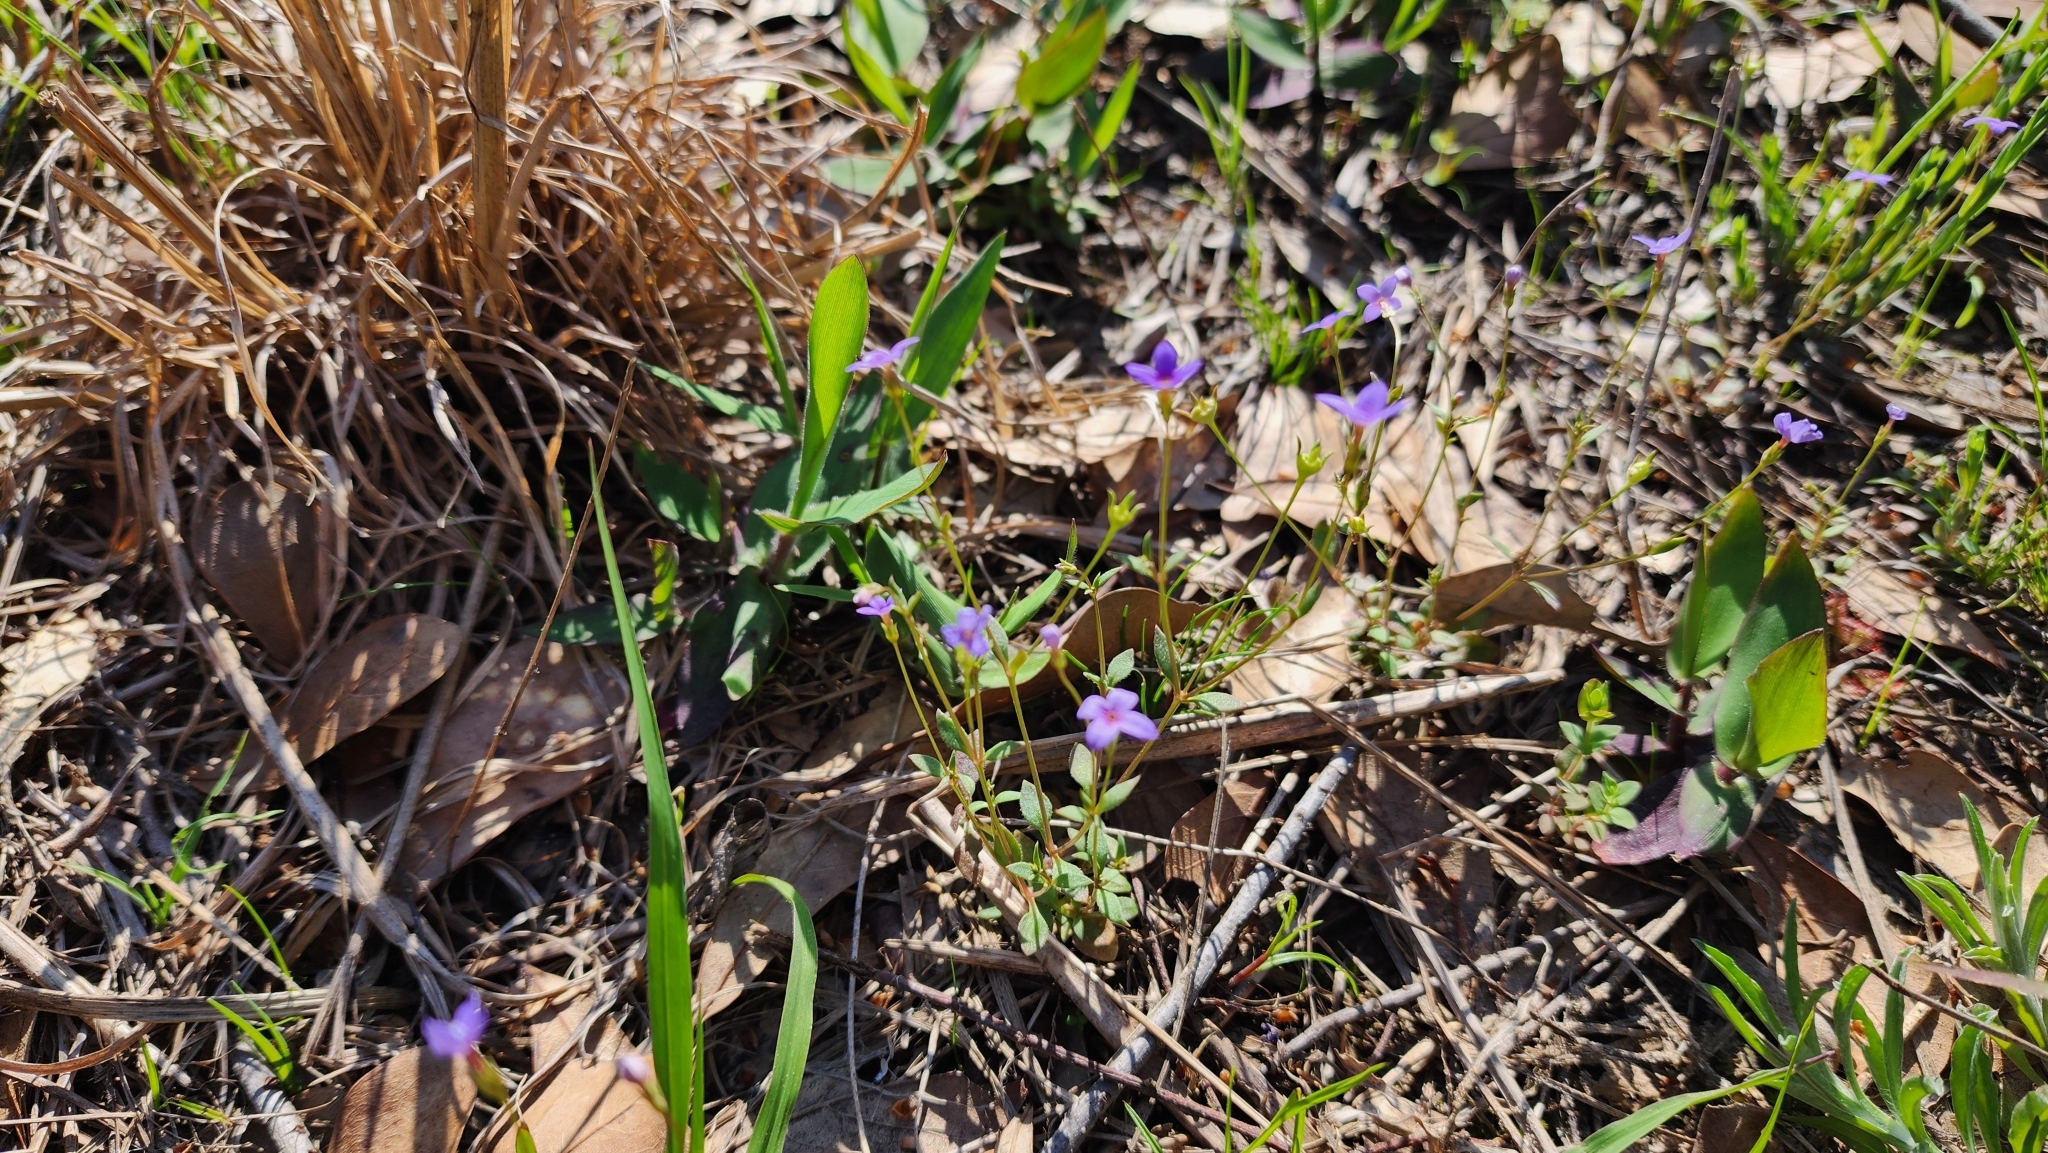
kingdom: Plantae
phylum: Tracheophyta
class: Magnoliopsida
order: Gentianales
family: Rubiaceae
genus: Houstonia
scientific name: Houstonia pusilla
